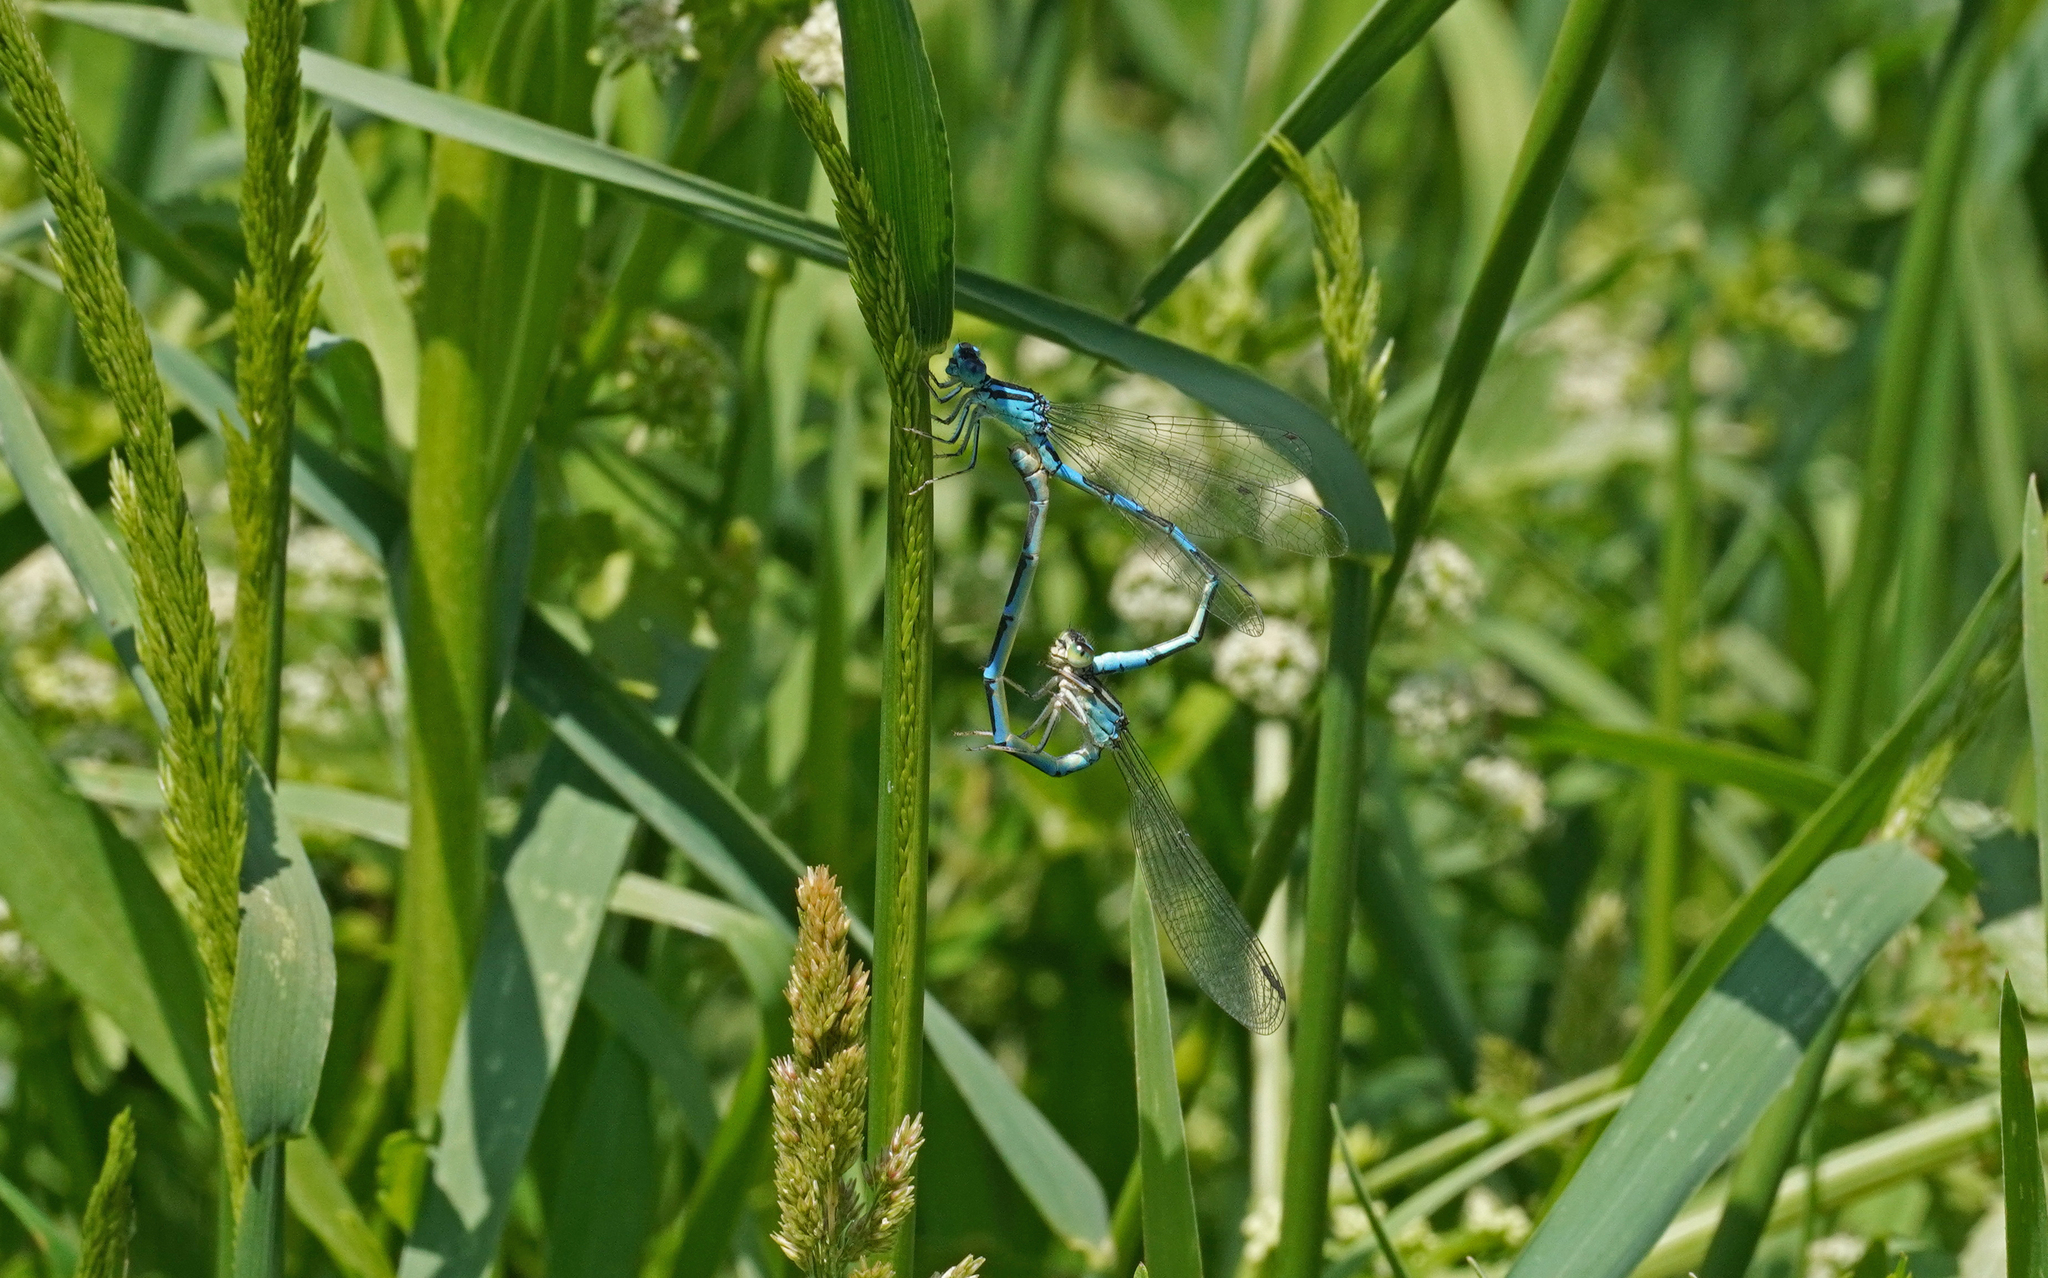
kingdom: Animalia
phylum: Arthropoda
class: Insecta
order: Odonata
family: Coenagrionidae
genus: Coenagrion
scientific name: Coenagrion scitulum
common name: Dainty bluet
